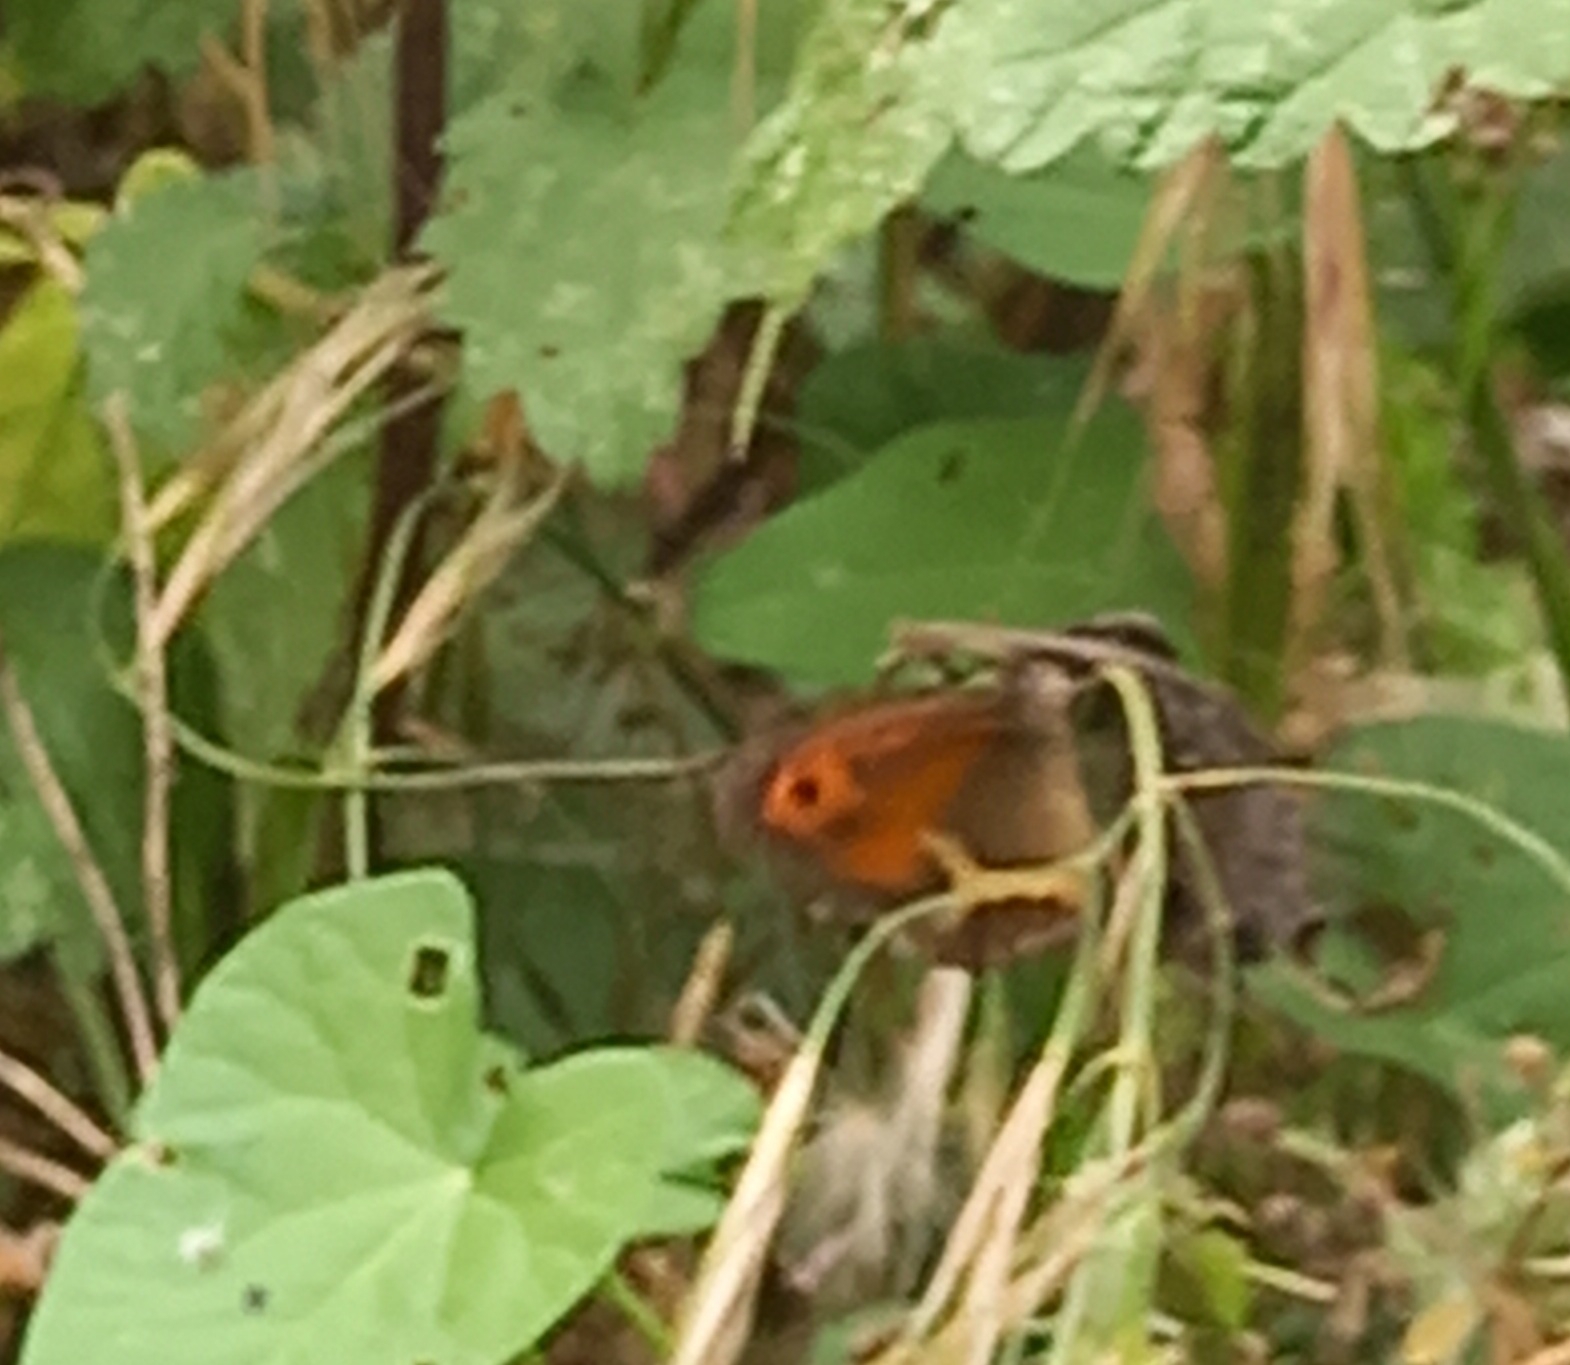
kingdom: Animalia
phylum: Arthropoda
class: Insecta
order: Lepidoptera
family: Nymphalidae
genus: Pyronia
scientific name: Pyronia bathseba
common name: Spanish gatekeeper
